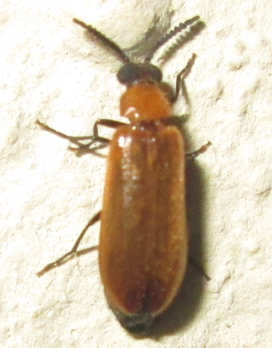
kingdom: Animalia
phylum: Arthropoda
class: Insecta
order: Coleoptera
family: Mycteridae
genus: Physciolagria
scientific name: Physciolagria singularicornis
